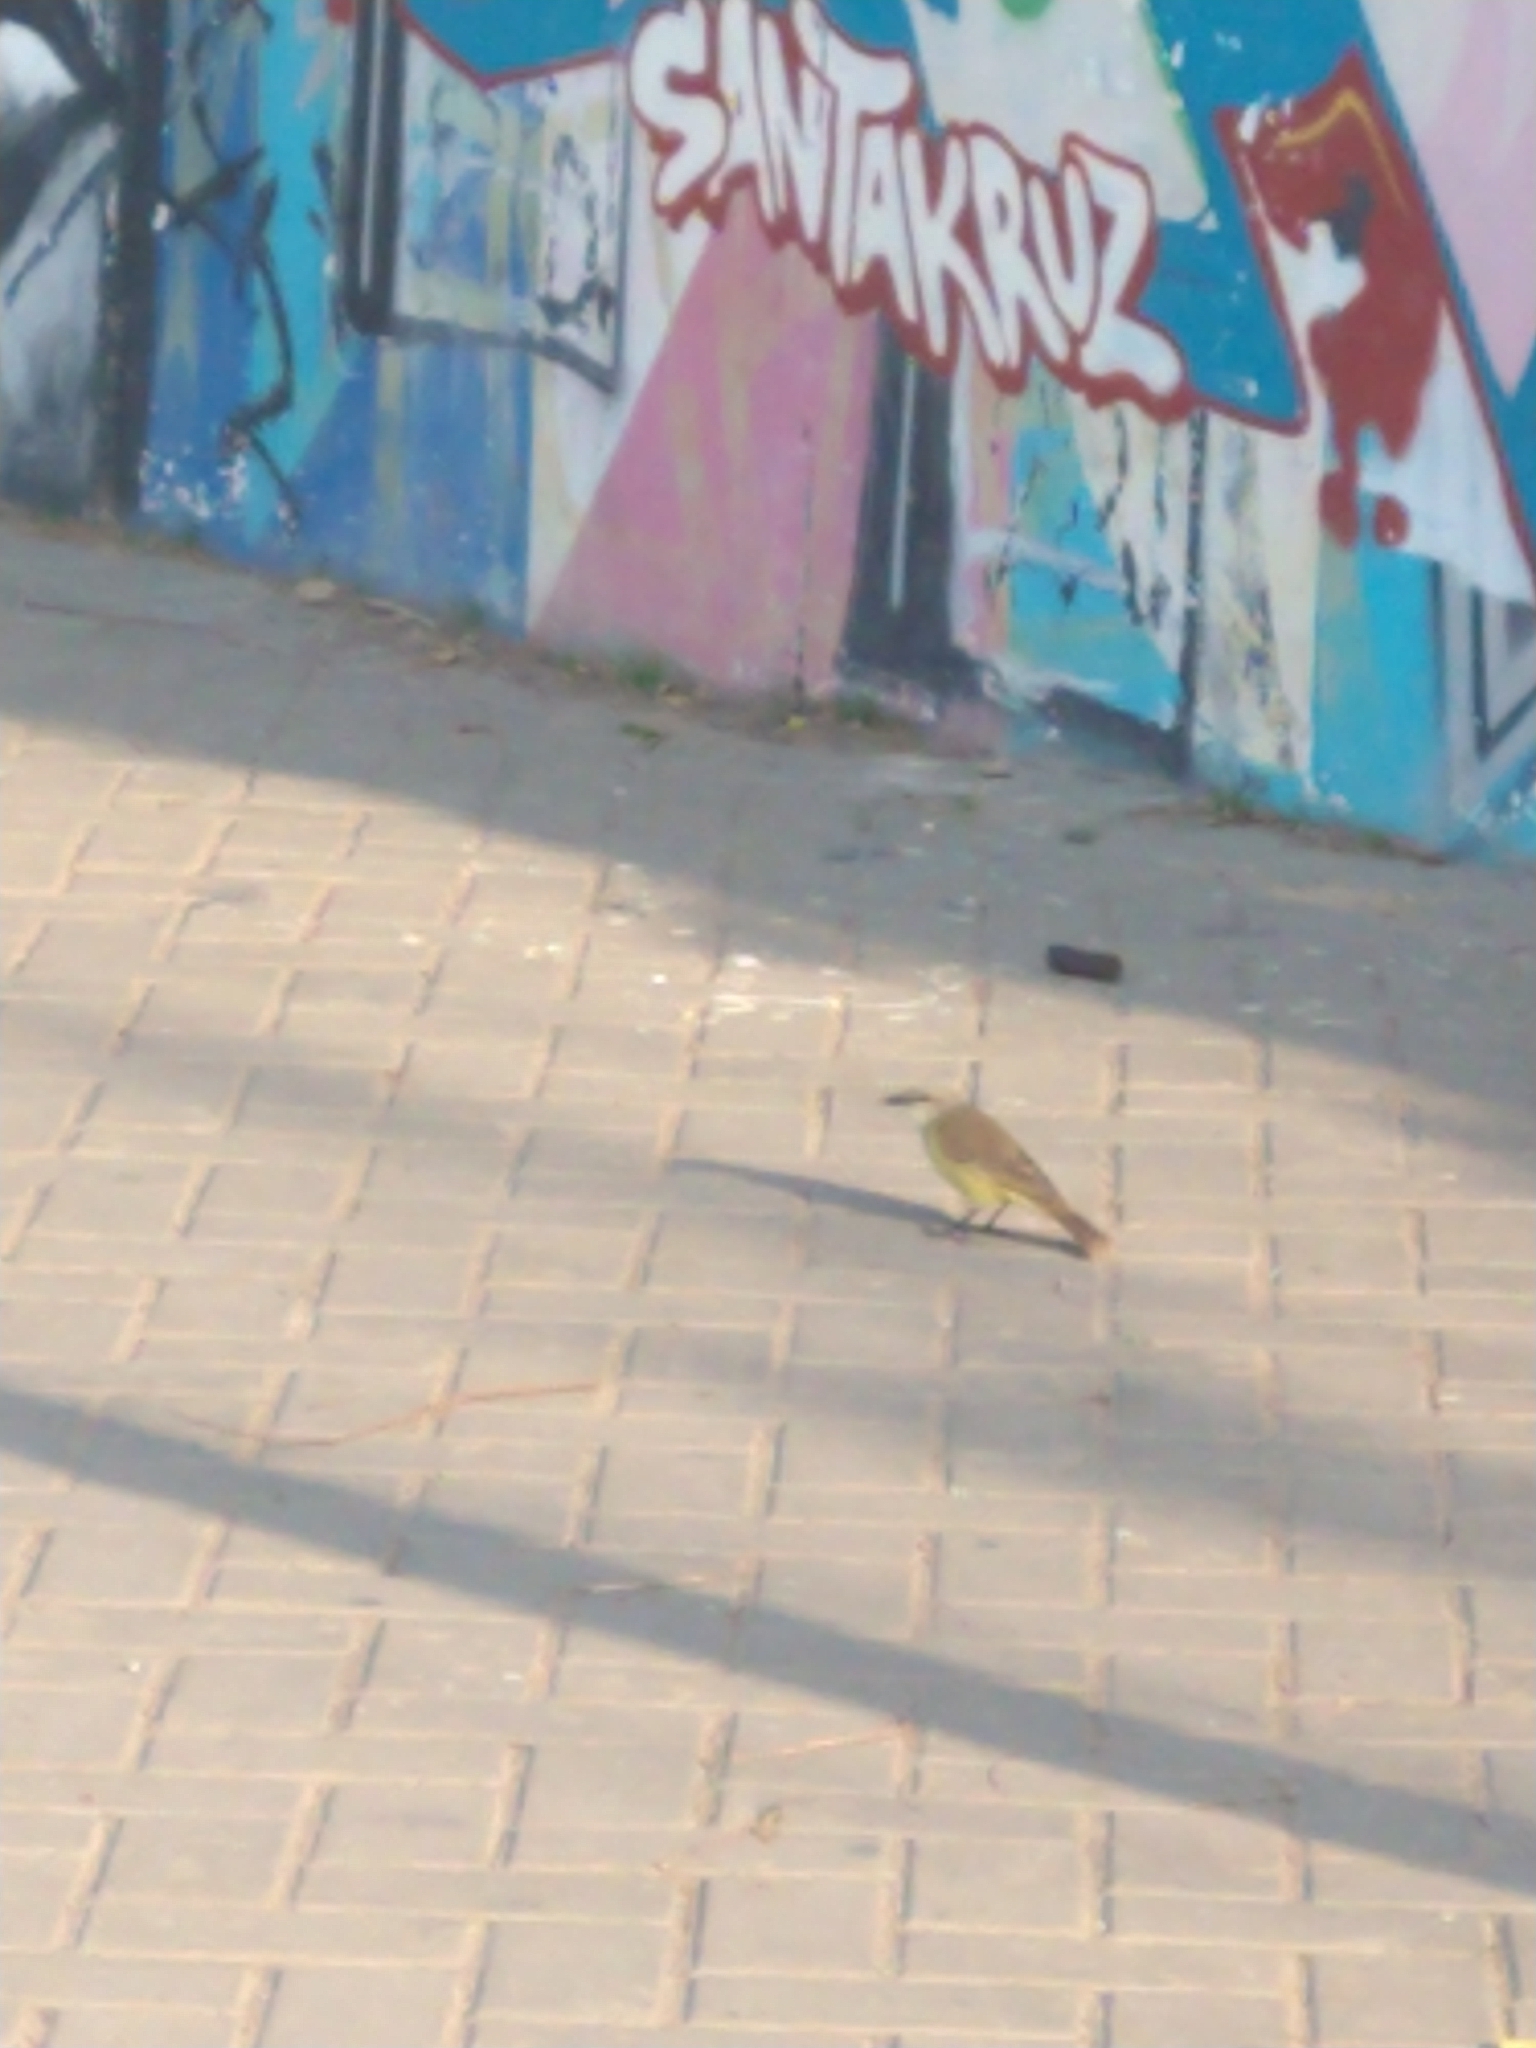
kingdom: Animalia
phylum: Chordata
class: Aves
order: Passeriformes
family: Tyrannidae
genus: Machetornis
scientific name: Machetornis rixosa
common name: Cattle tyrant
